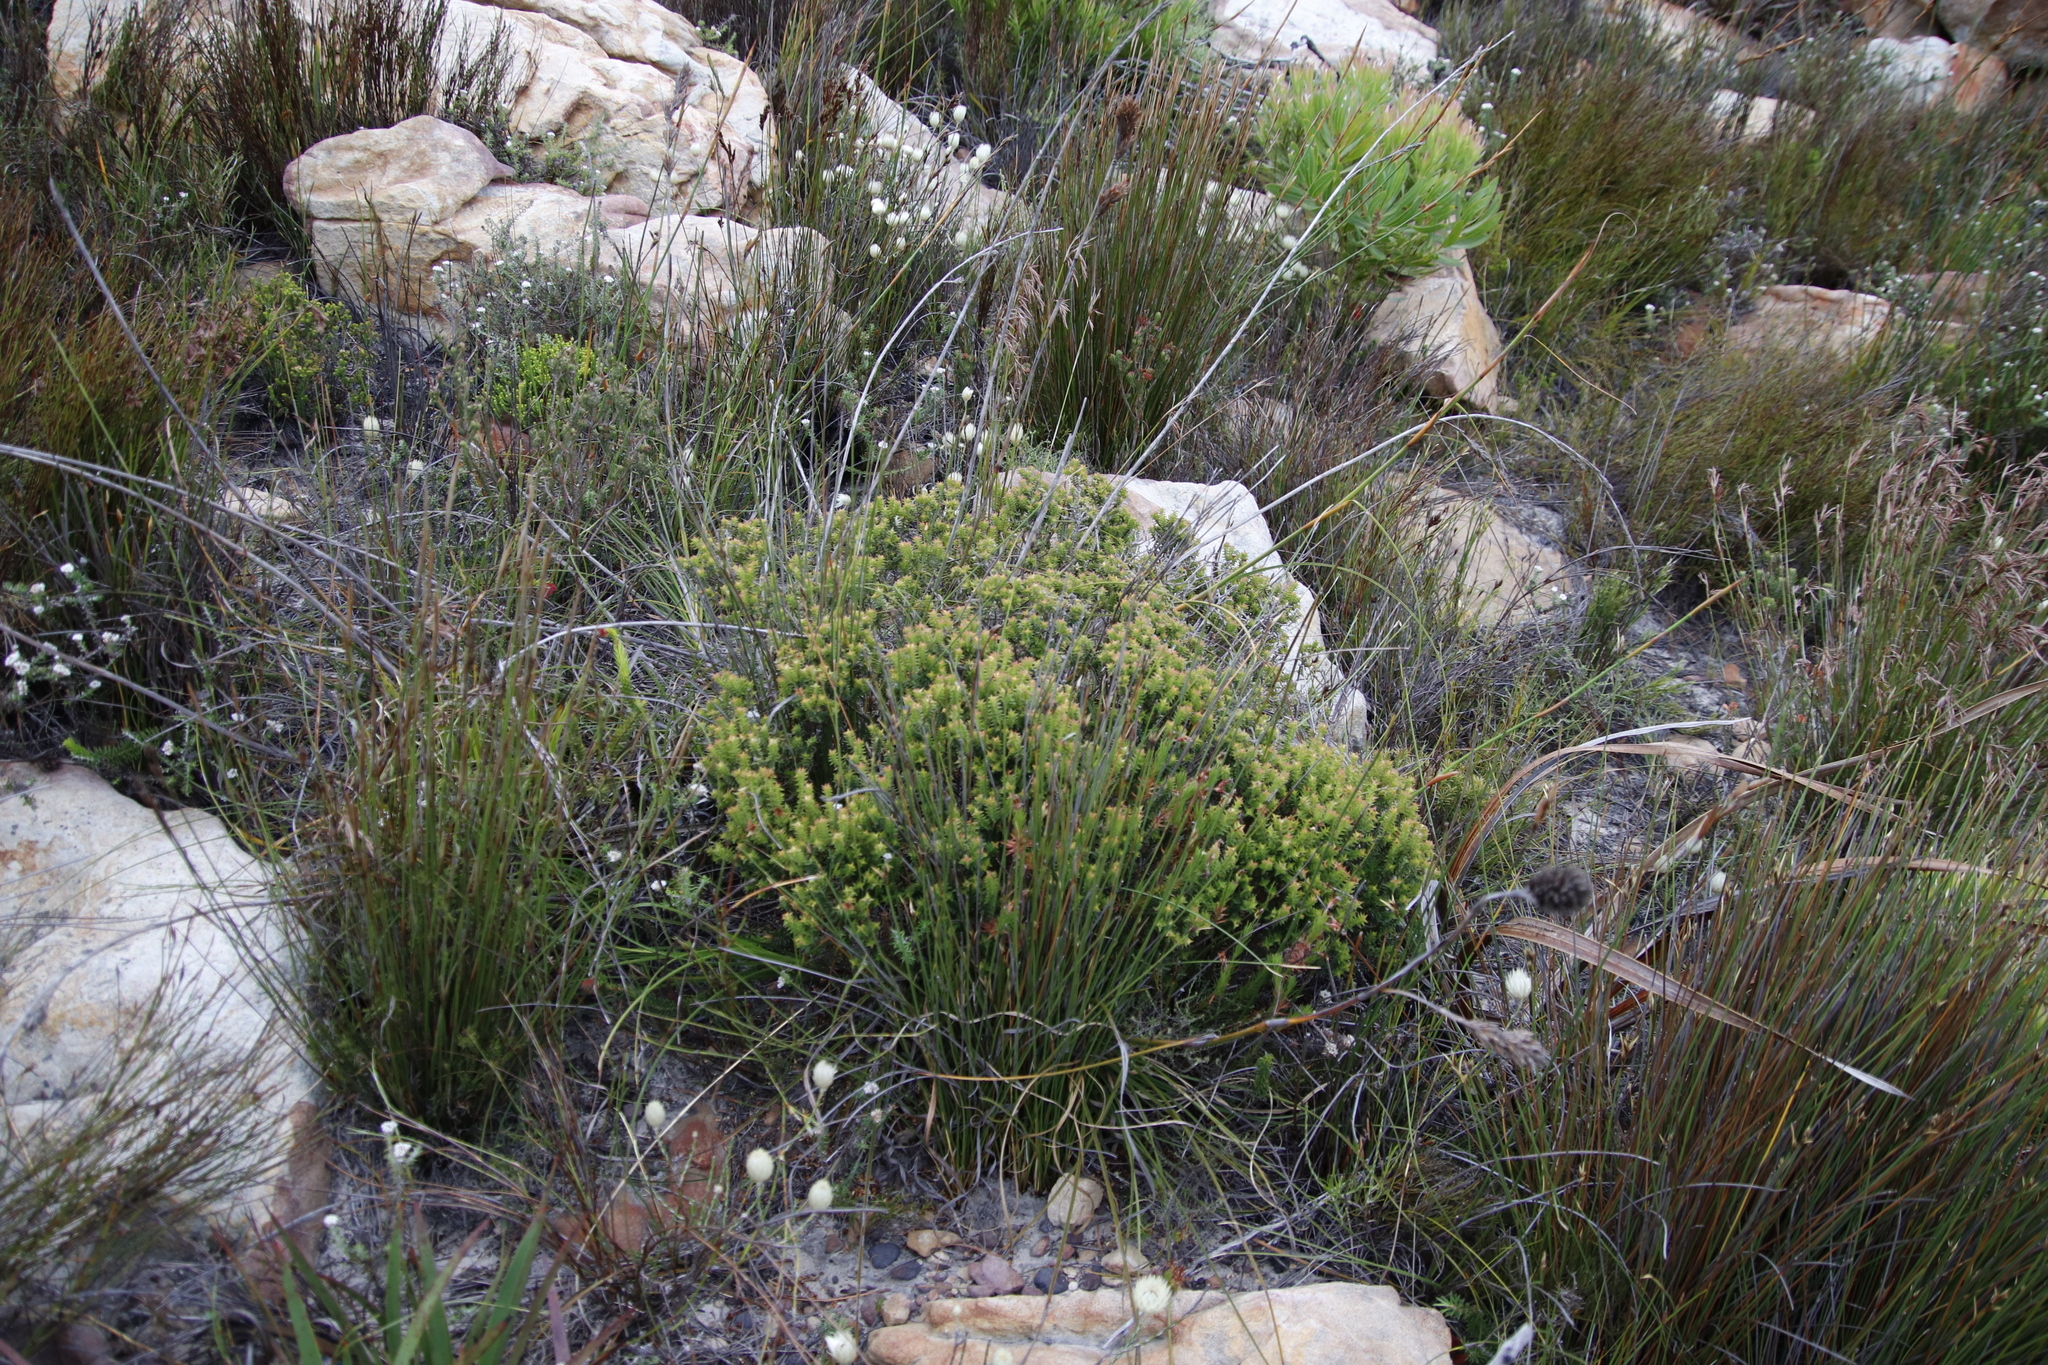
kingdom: Plantae
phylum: Tracheophyta
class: Magnoliopsida
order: Myrtales
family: Penaeaceae
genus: Penaea
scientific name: Penaea mucronata
